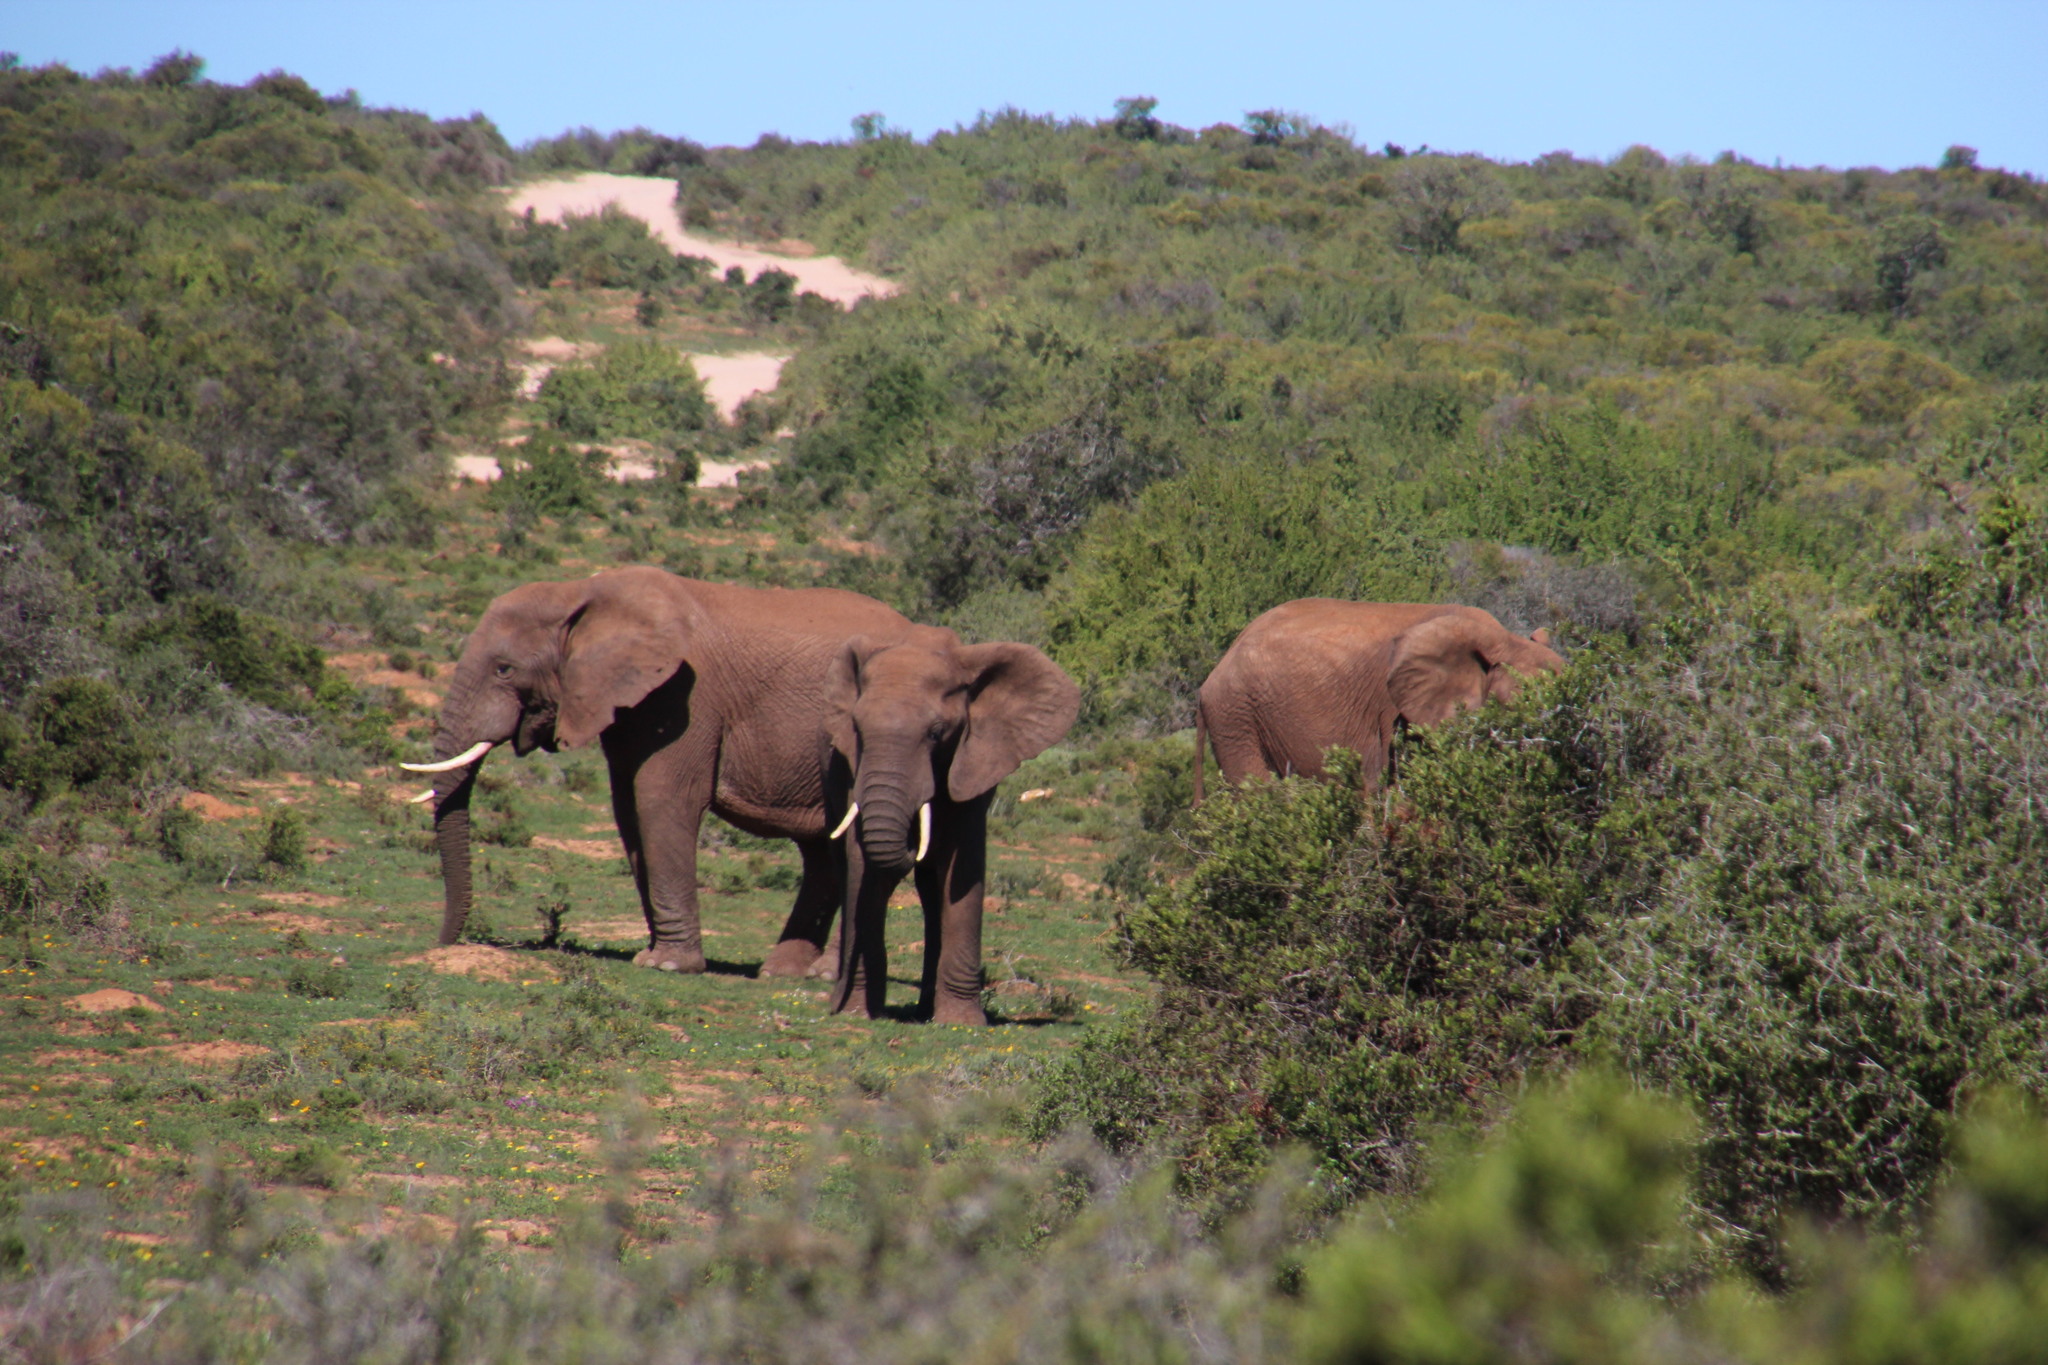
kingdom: Animalia
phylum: Chordata
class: Mammalia
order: Proboscidea
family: Elephantidae
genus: Loxodonta
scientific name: Loxodonta africana
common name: African elephant
